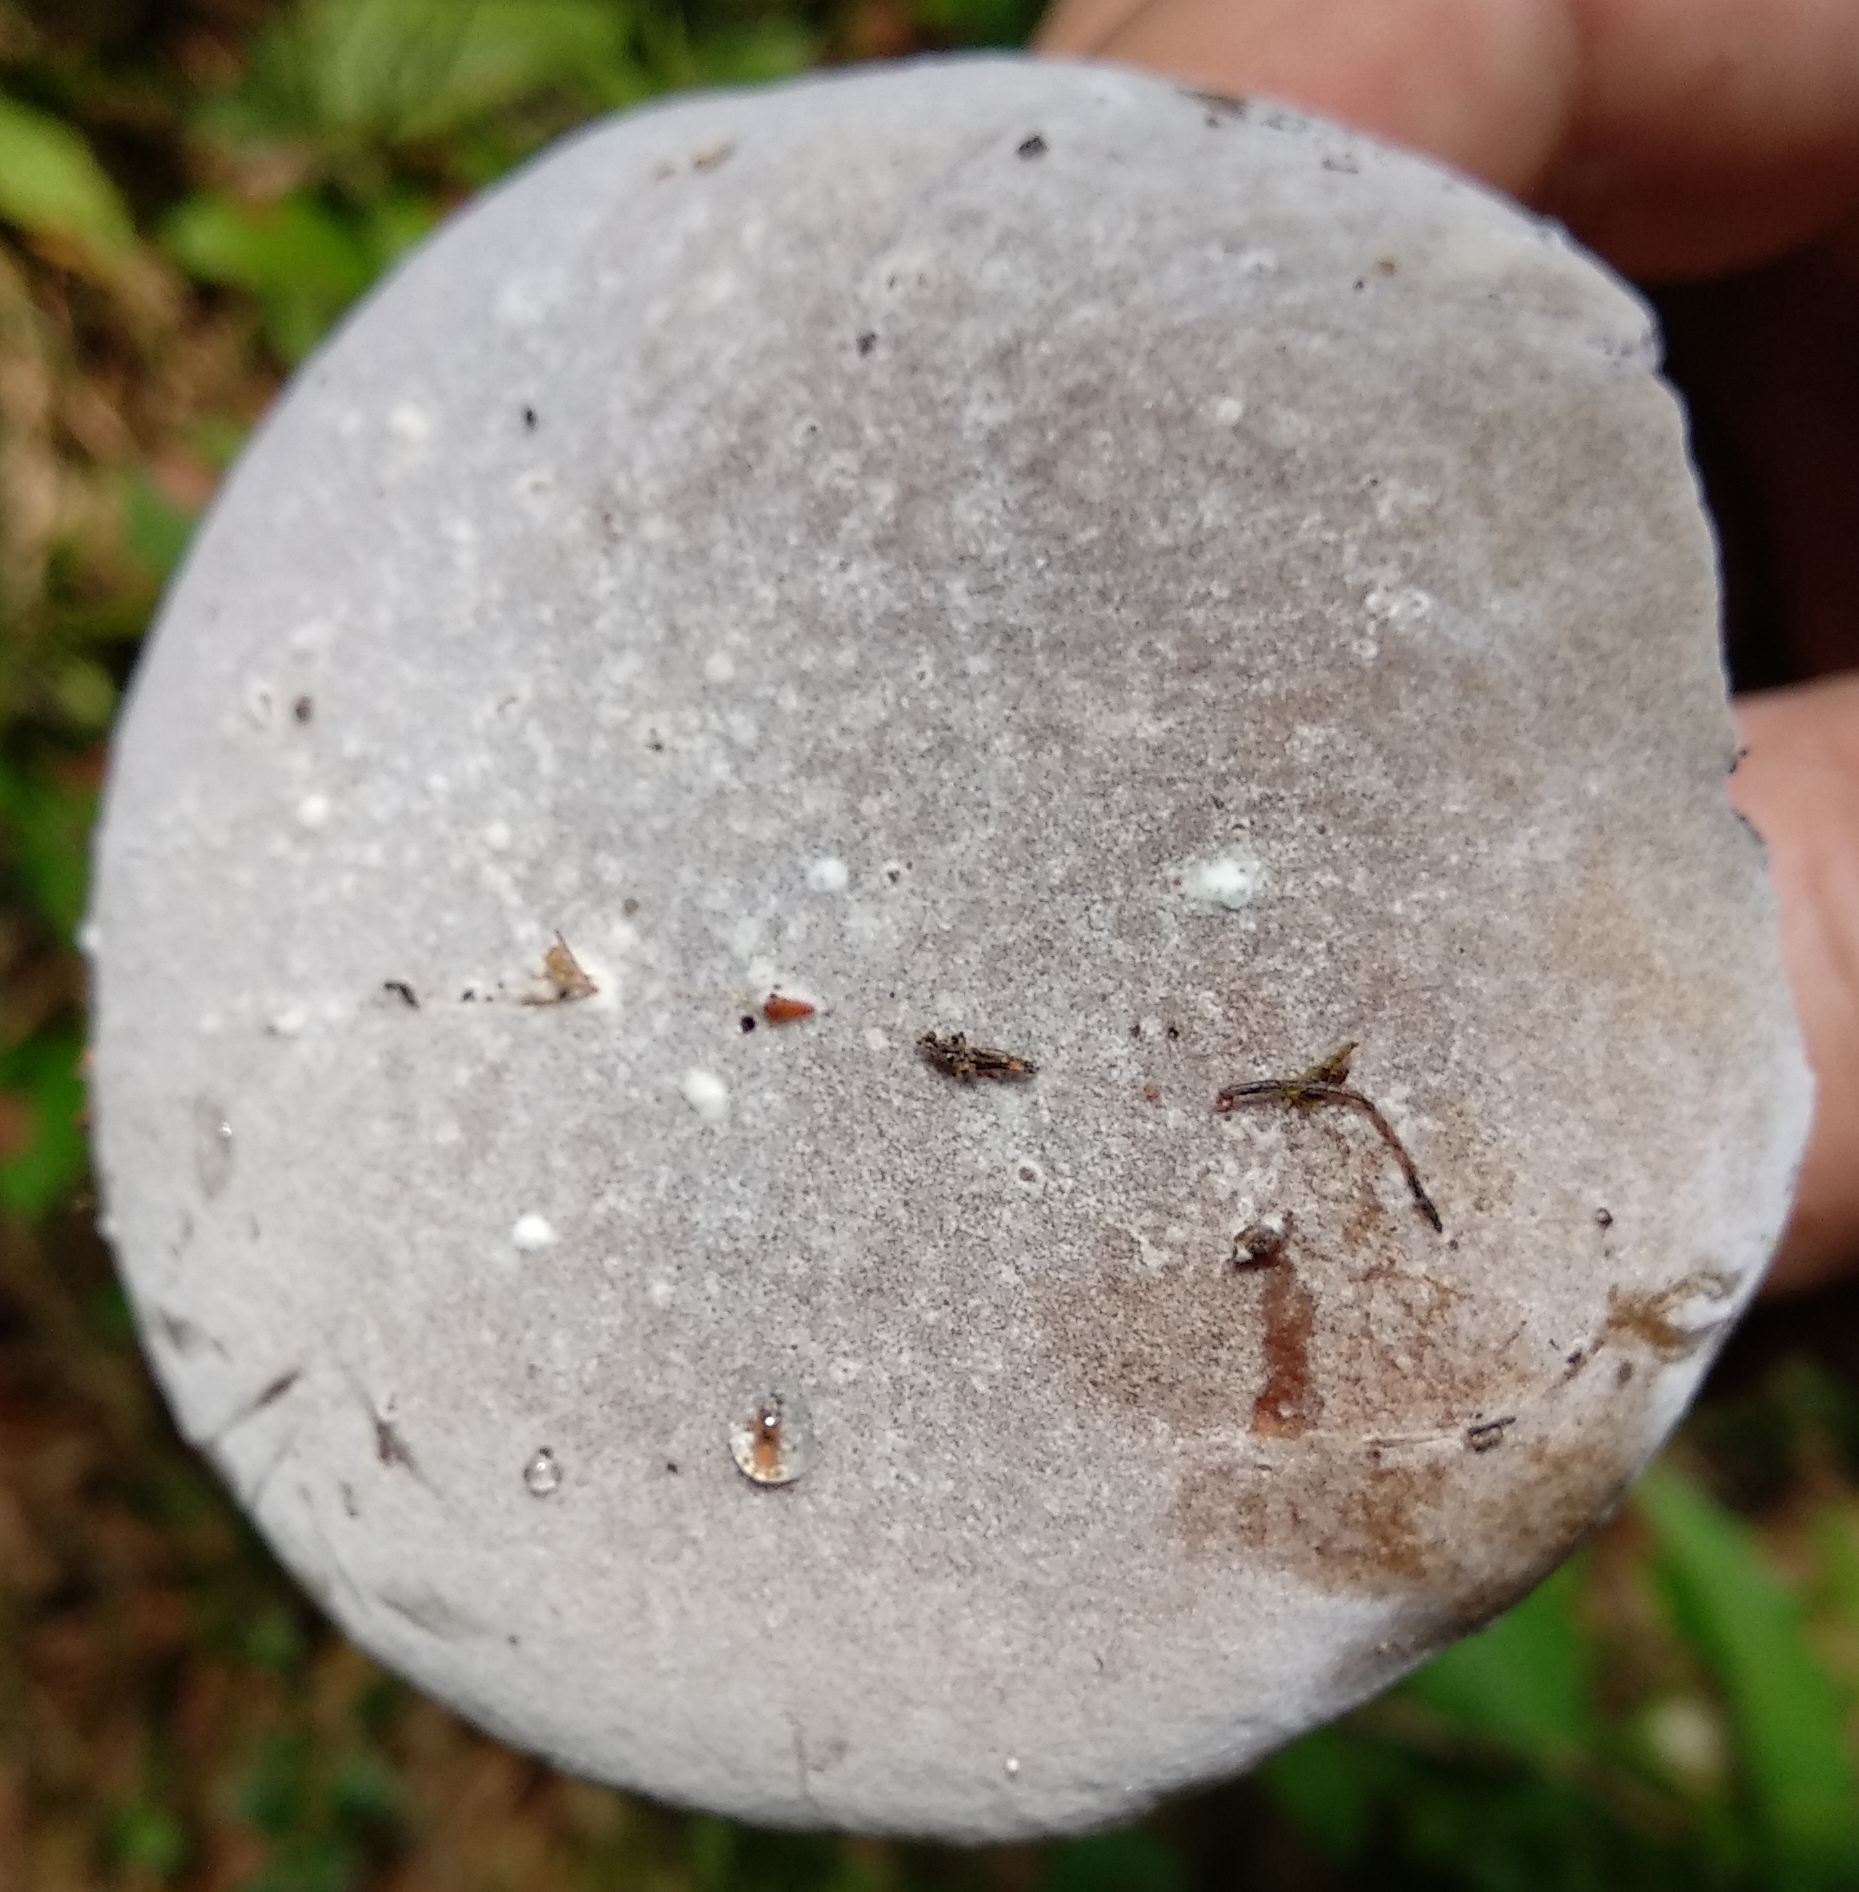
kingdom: Fungi
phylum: Ascomycota
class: Sordariomycetes
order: Hypocreales
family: Hypocreaceae
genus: Hypomyces
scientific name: Hypomyces chrysospermus
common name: Bolete mould
